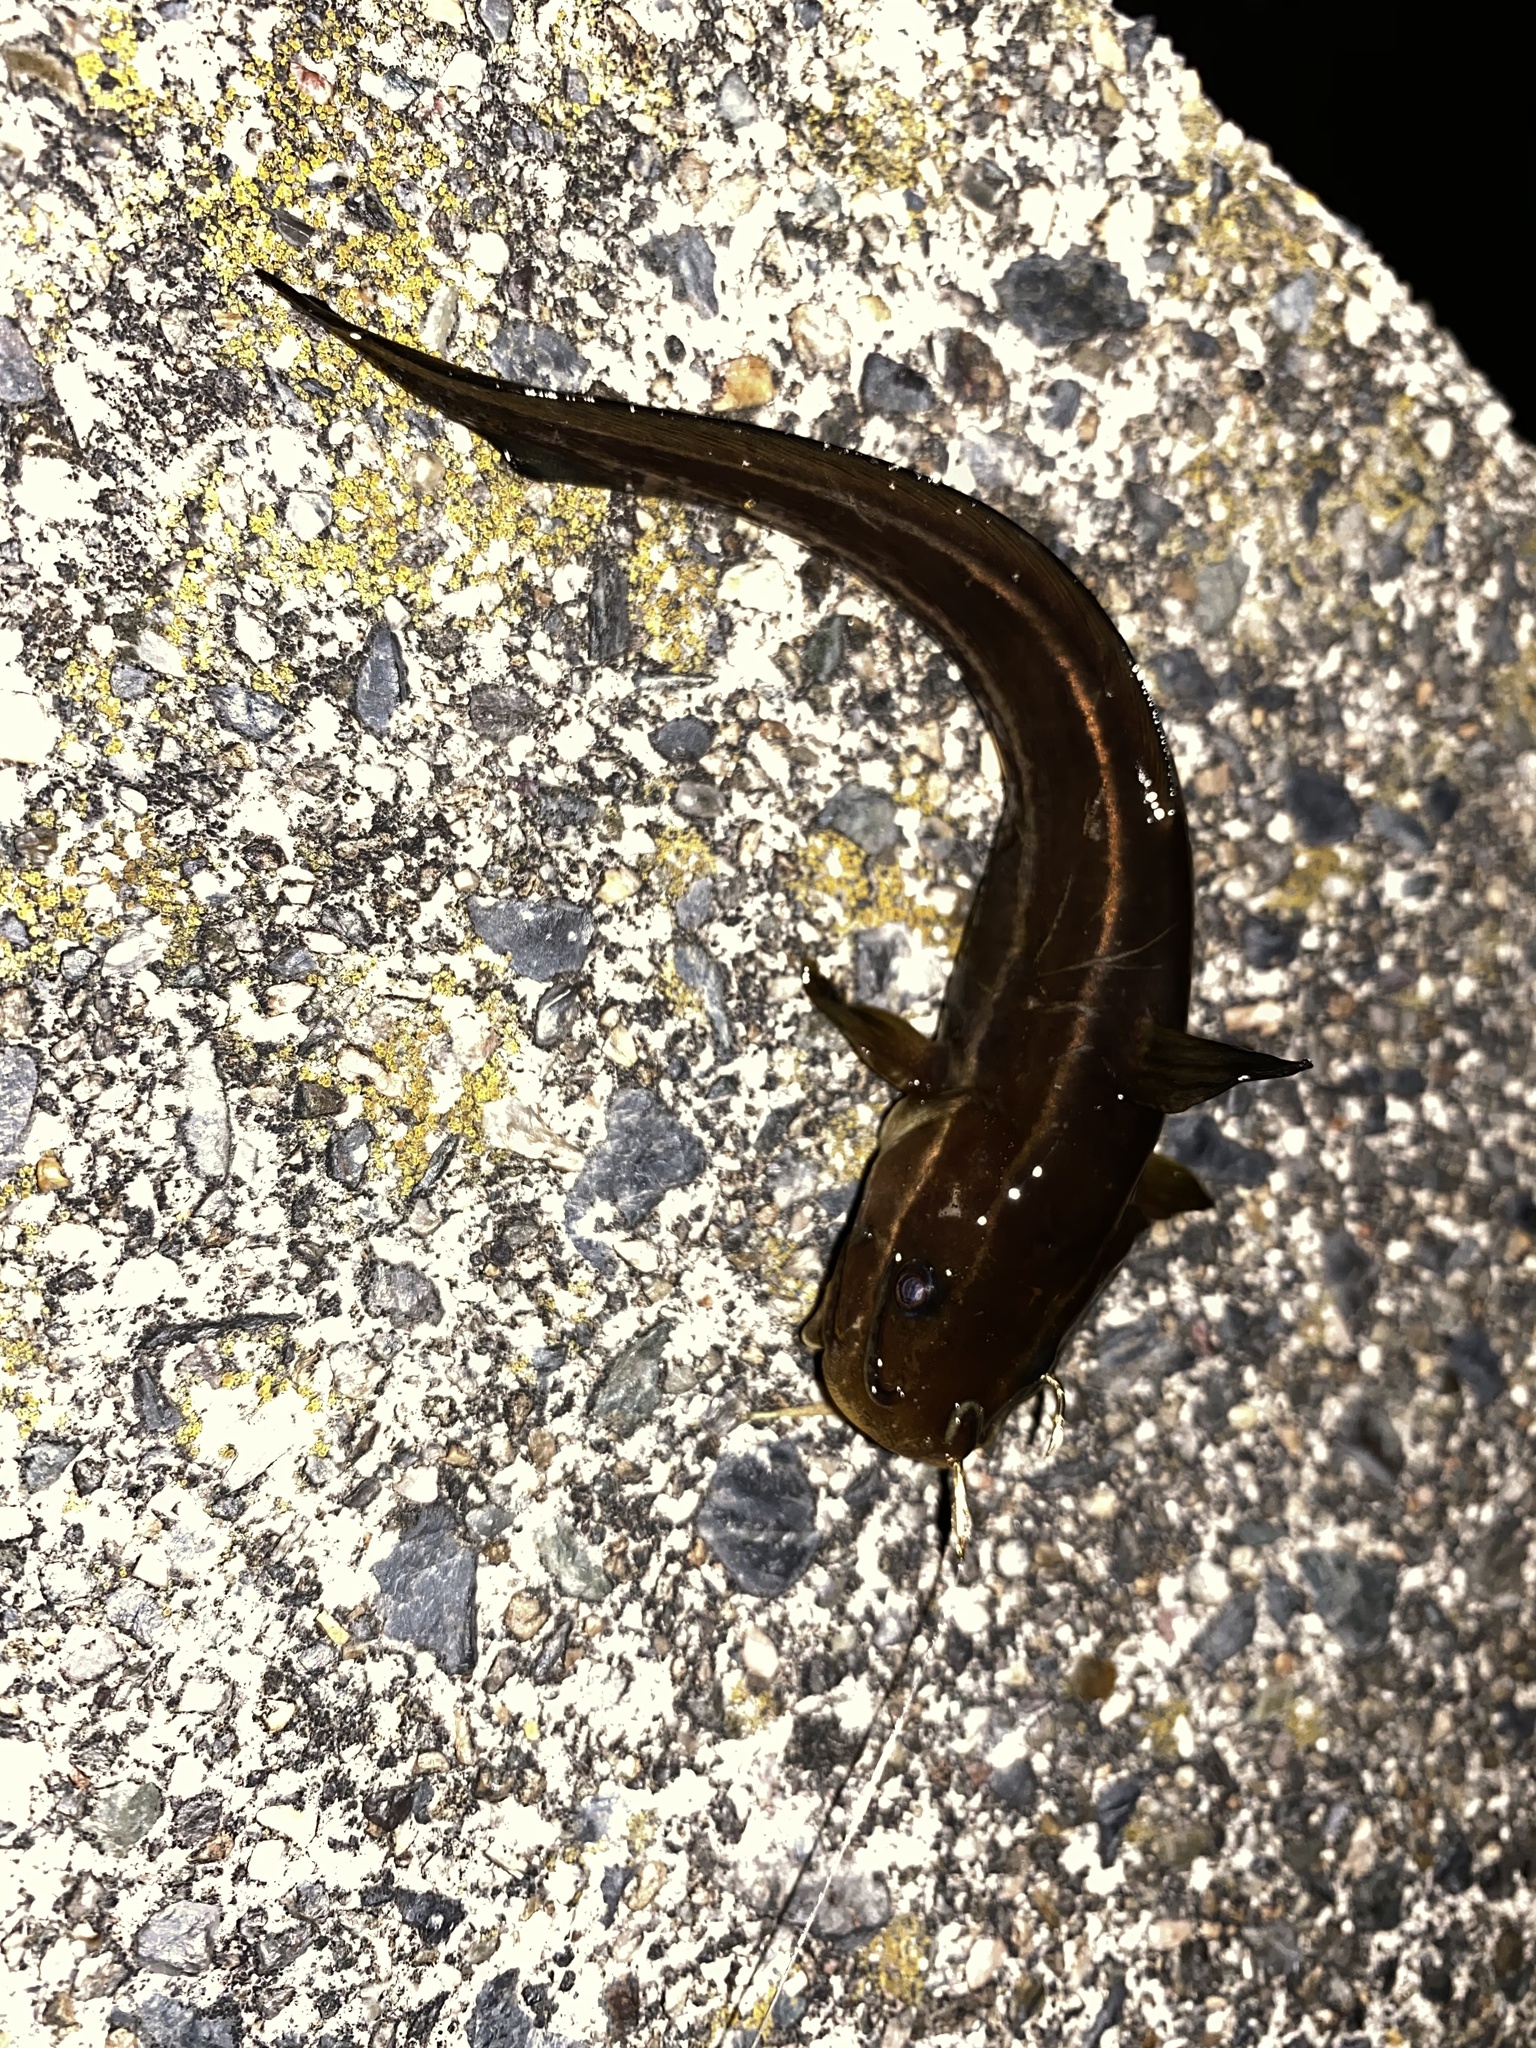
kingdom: Animalia
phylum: Chordata
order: Siluriformes
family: Plotosidae
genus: Plotosus
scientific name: Plotosus japonicus
